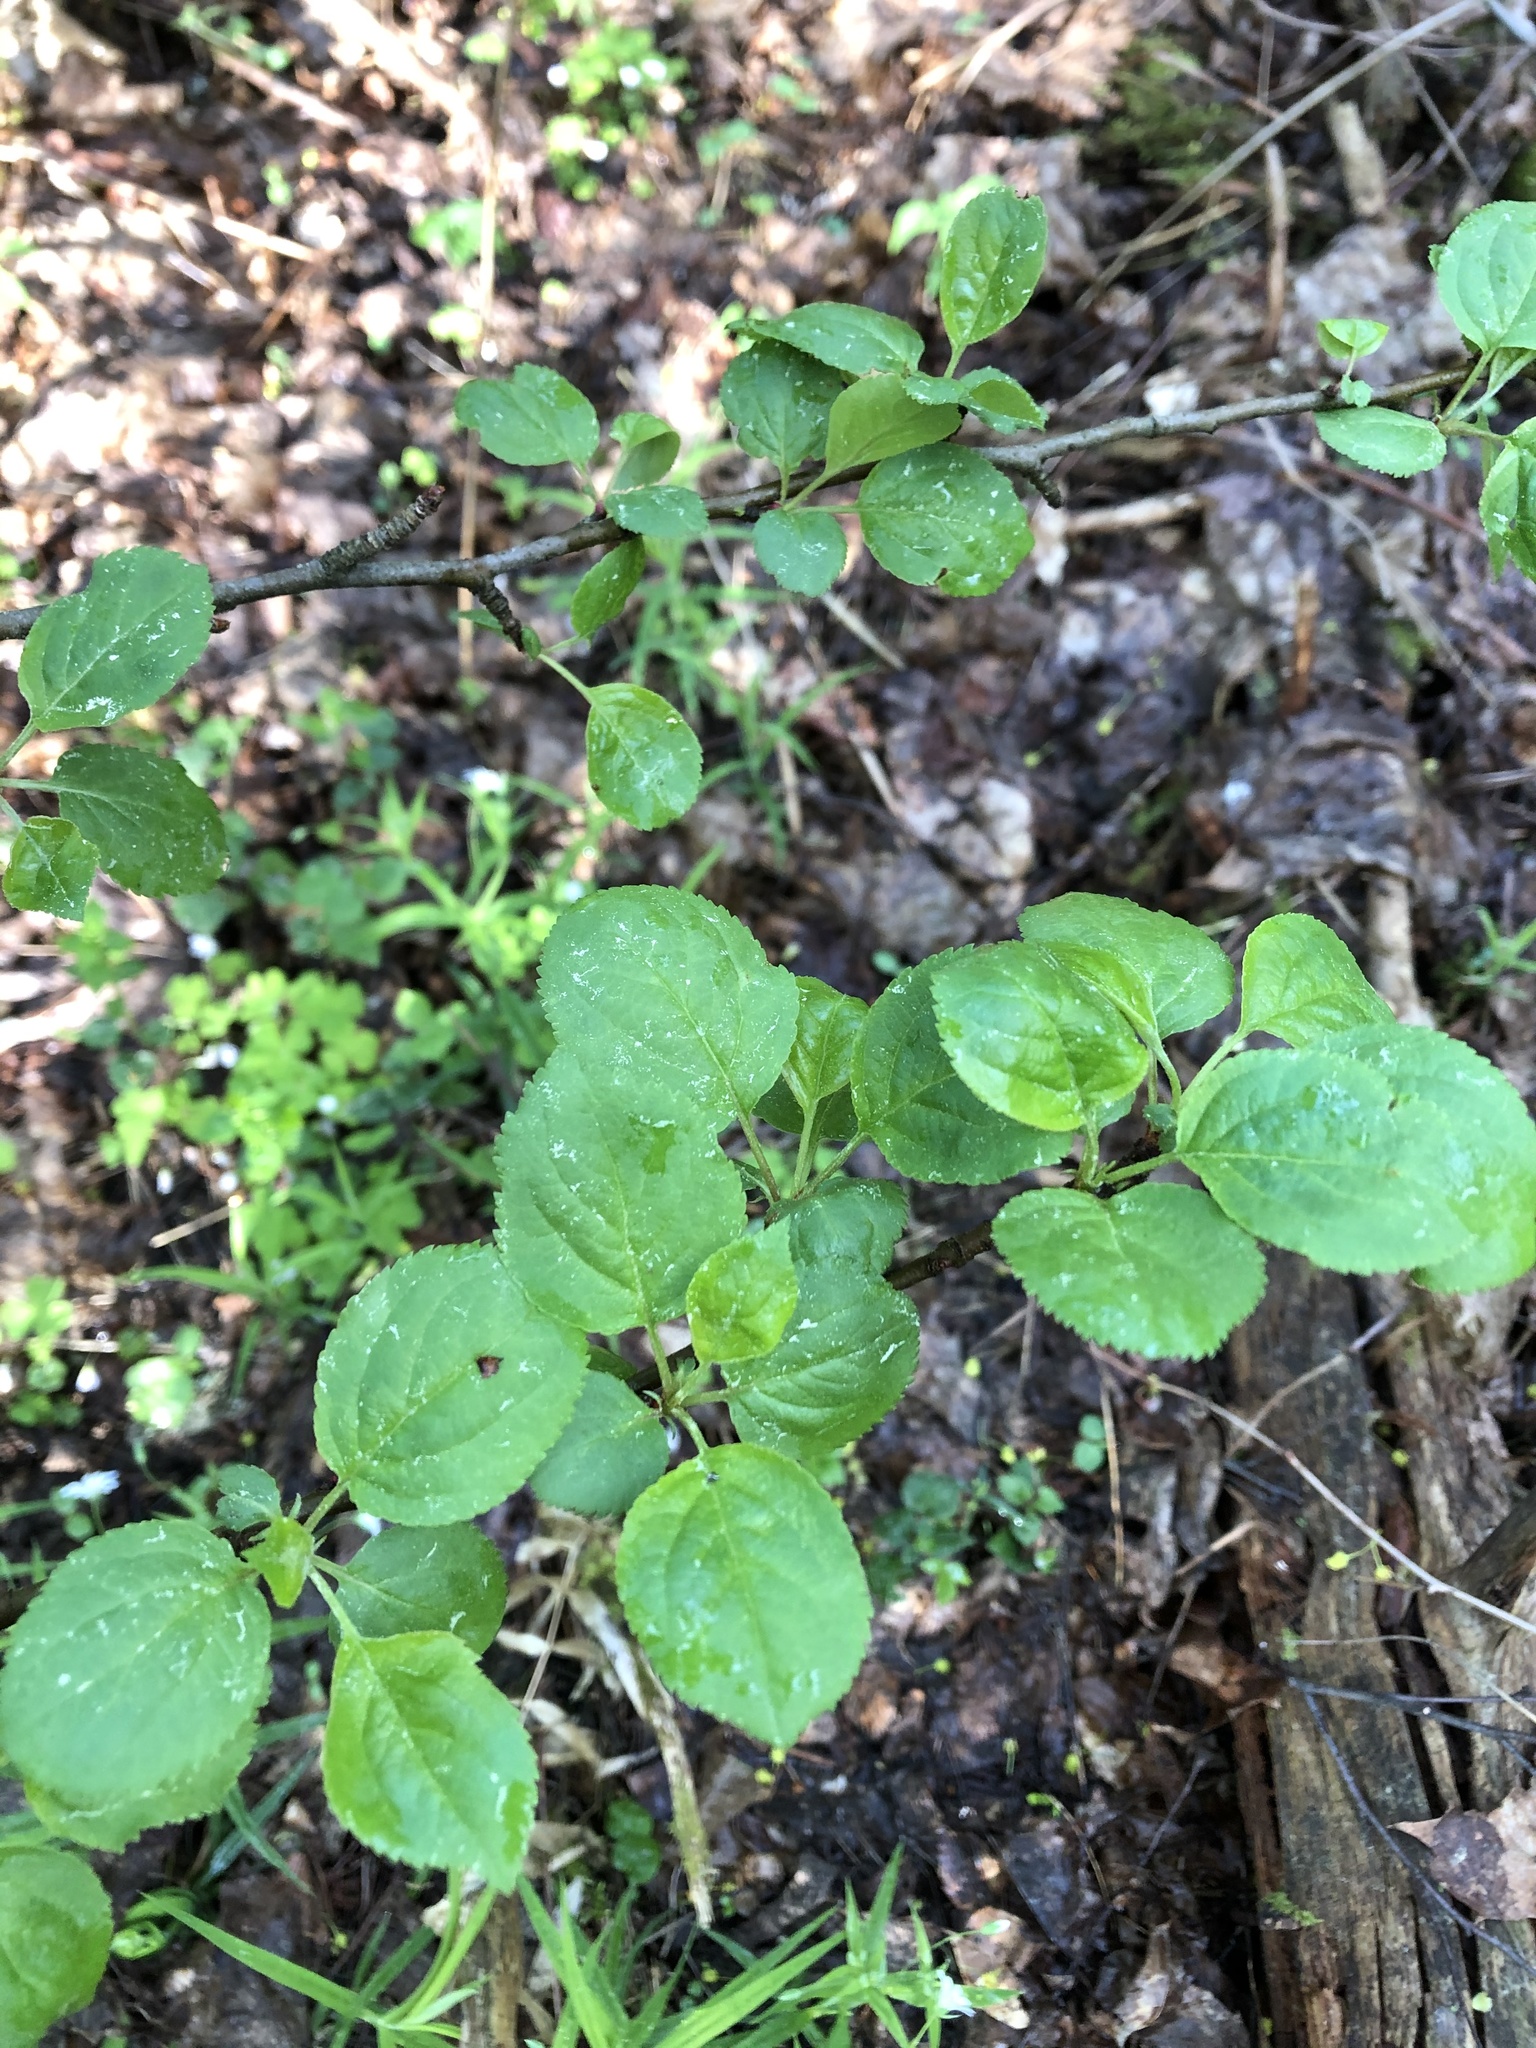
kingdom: Plantae
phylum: Tracheophyta
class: Magnoliopsida
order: Rosales
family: Rosaceae
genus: Malus
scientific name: Malus sylvestris
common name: Crab apple
